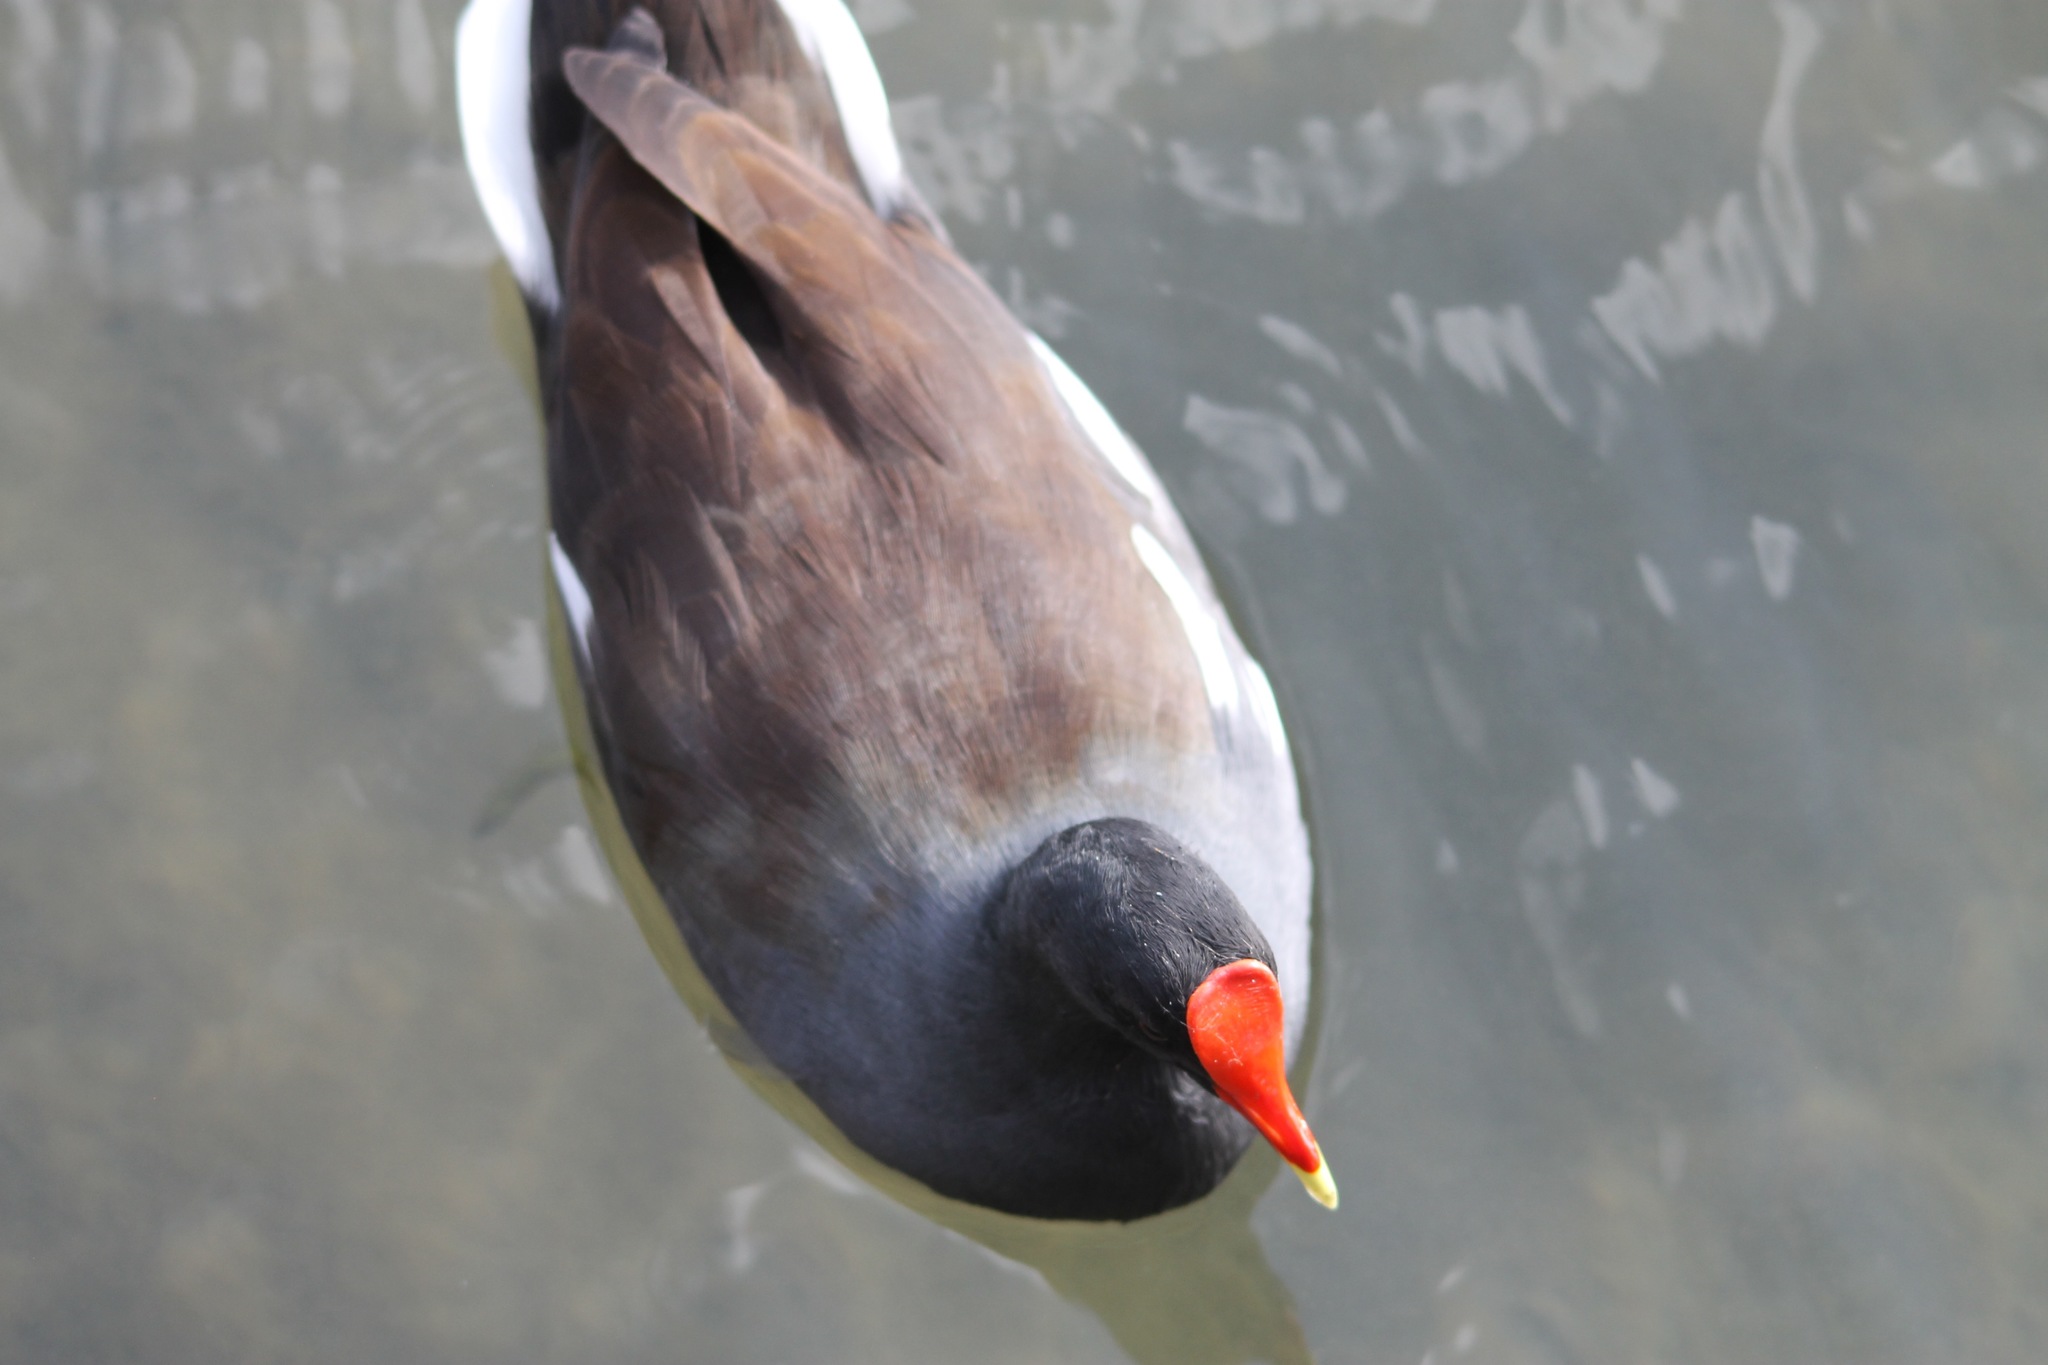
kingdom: Animalia
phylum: Chordata
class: Aves
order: Gruiformes
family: Rallidae
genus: Gallinula
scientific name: Gallinula chloropus
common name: Common moorhen
